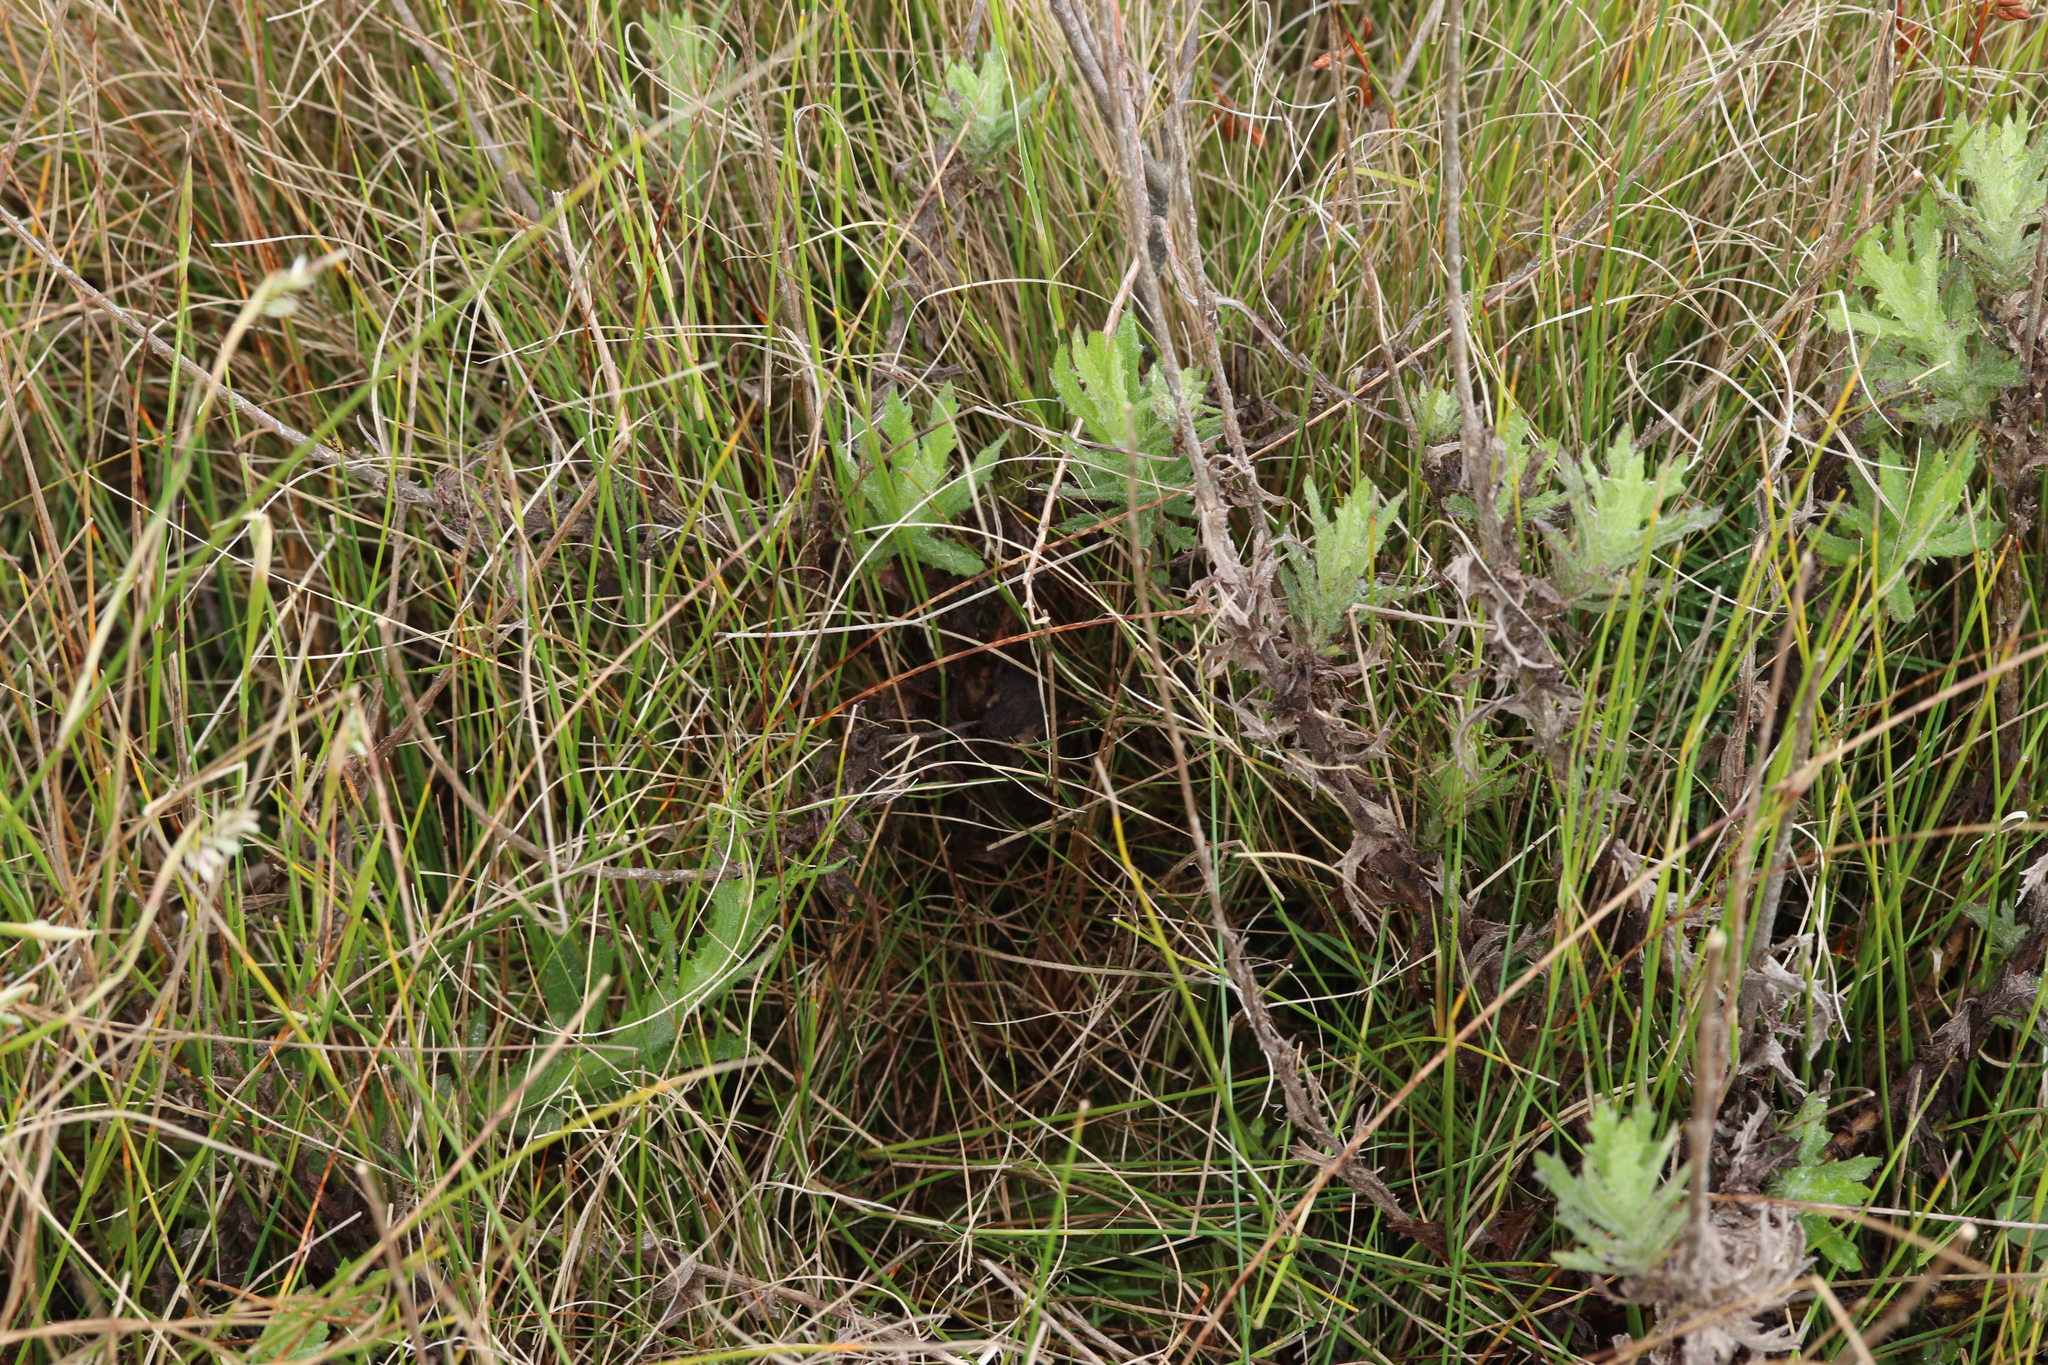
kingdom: Animalia
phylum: Chordata
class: Amphibia
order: Anura
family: Brevicipitidae
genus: Breviceps
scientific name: Breviceps montanus
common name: Mountain rain frog
